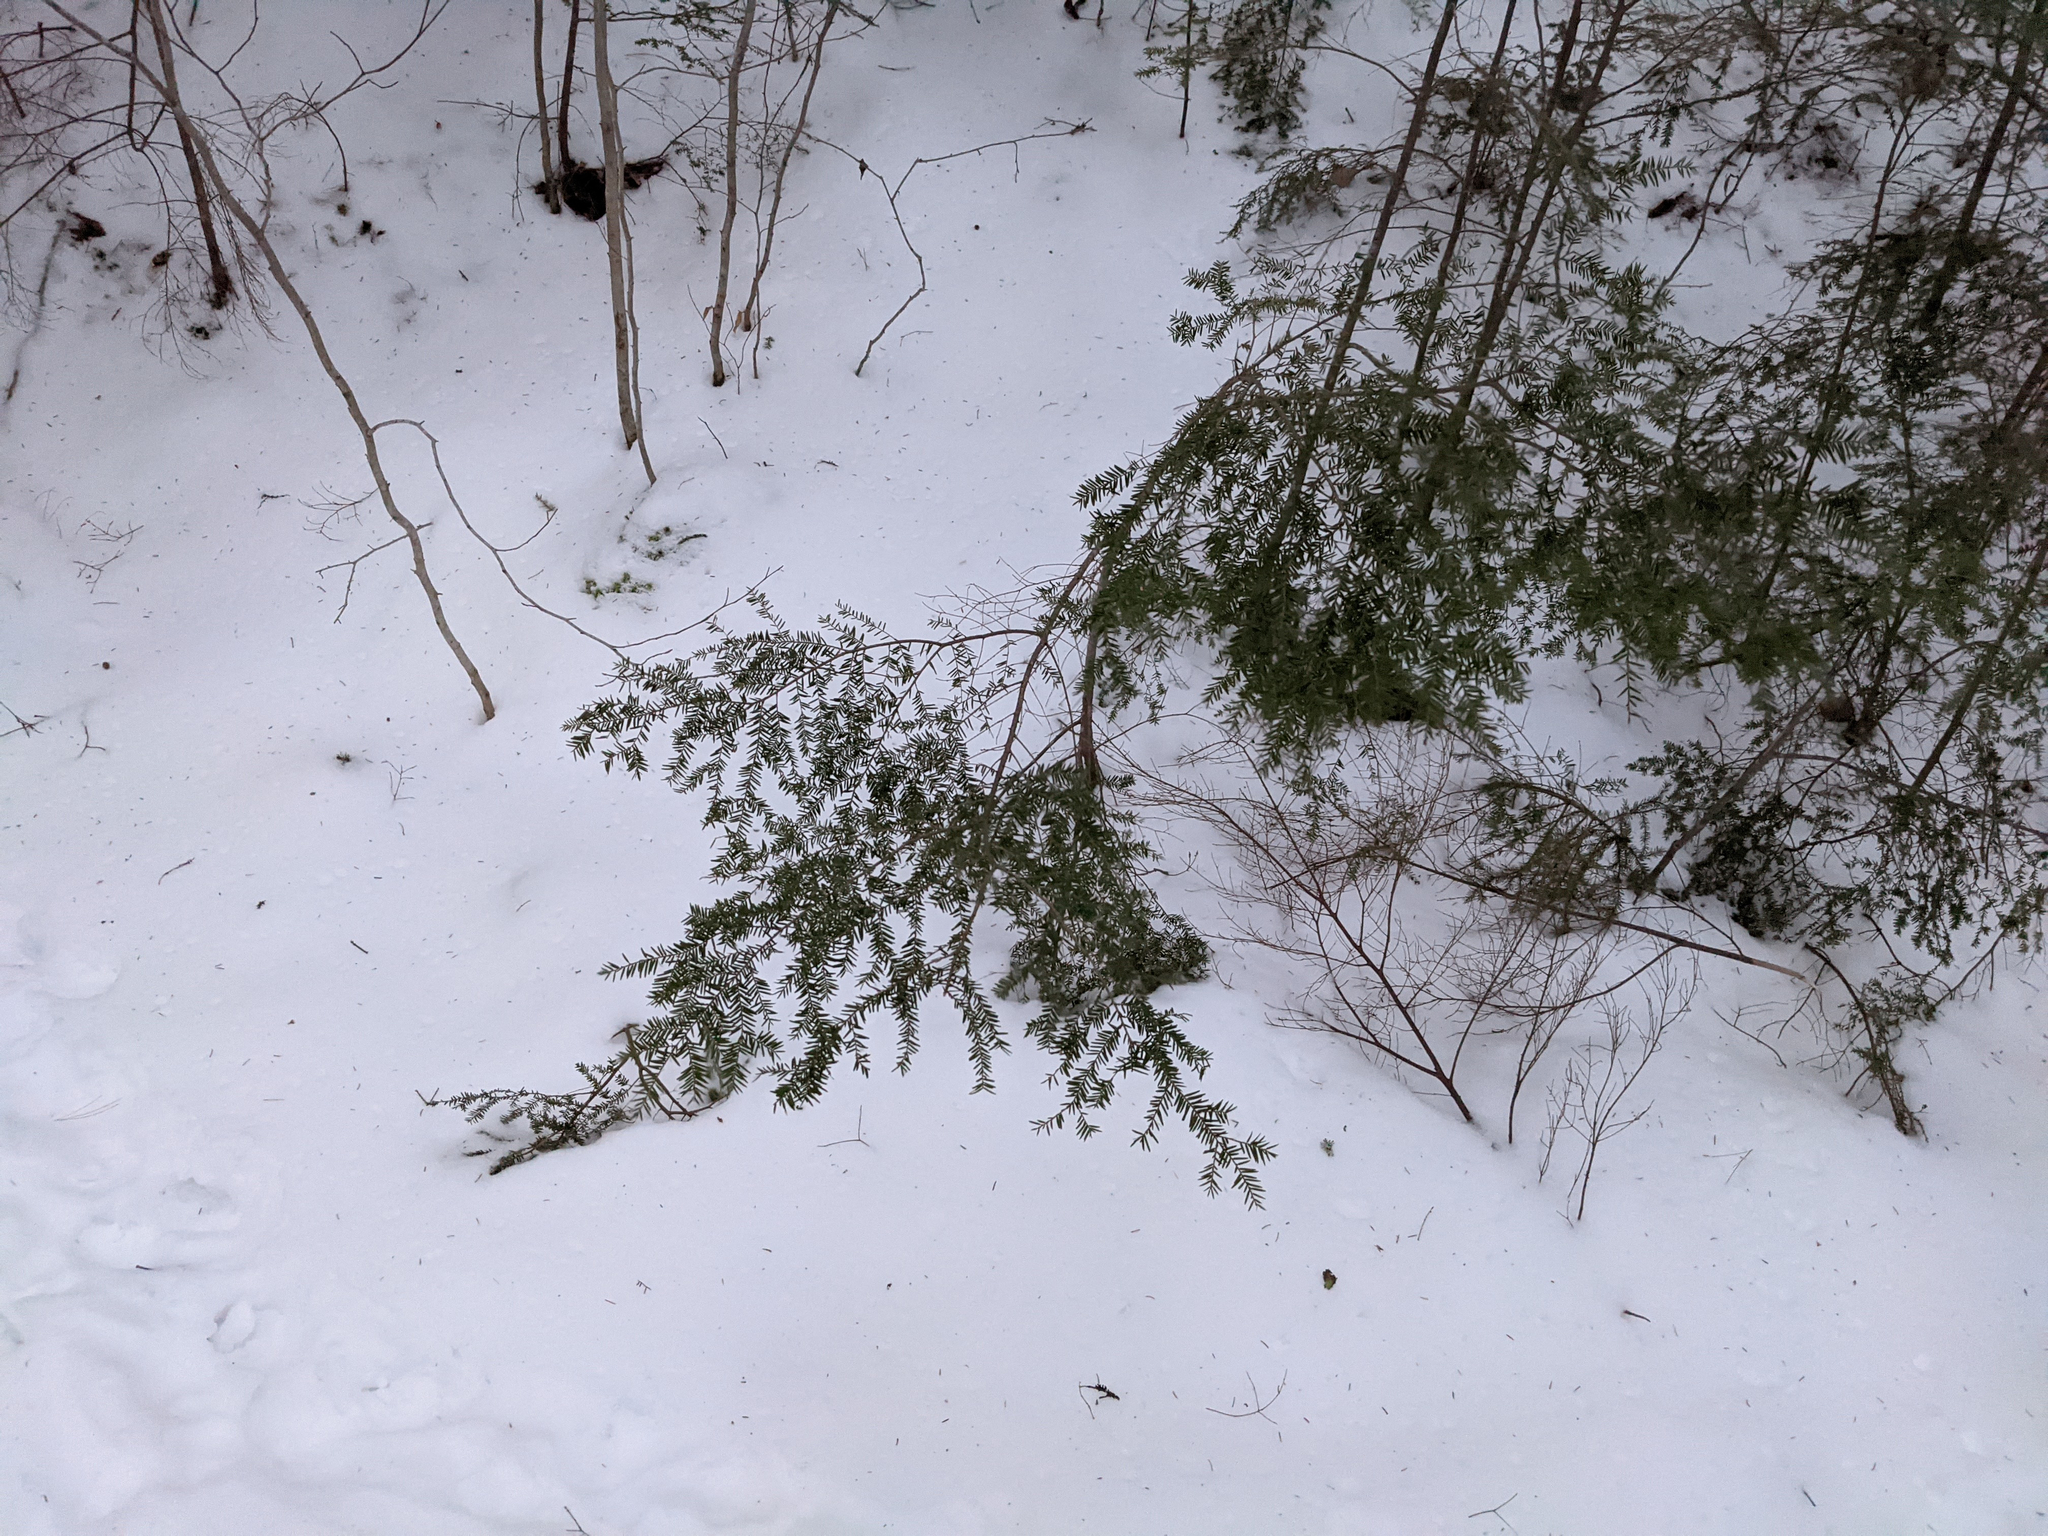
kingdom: Plantae
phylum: Tracheophyta
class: Pinopsida
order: Pinales
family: Pinaceae
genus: Tsuga
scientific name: Tsuga canadensis
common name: Eastern hemlock
